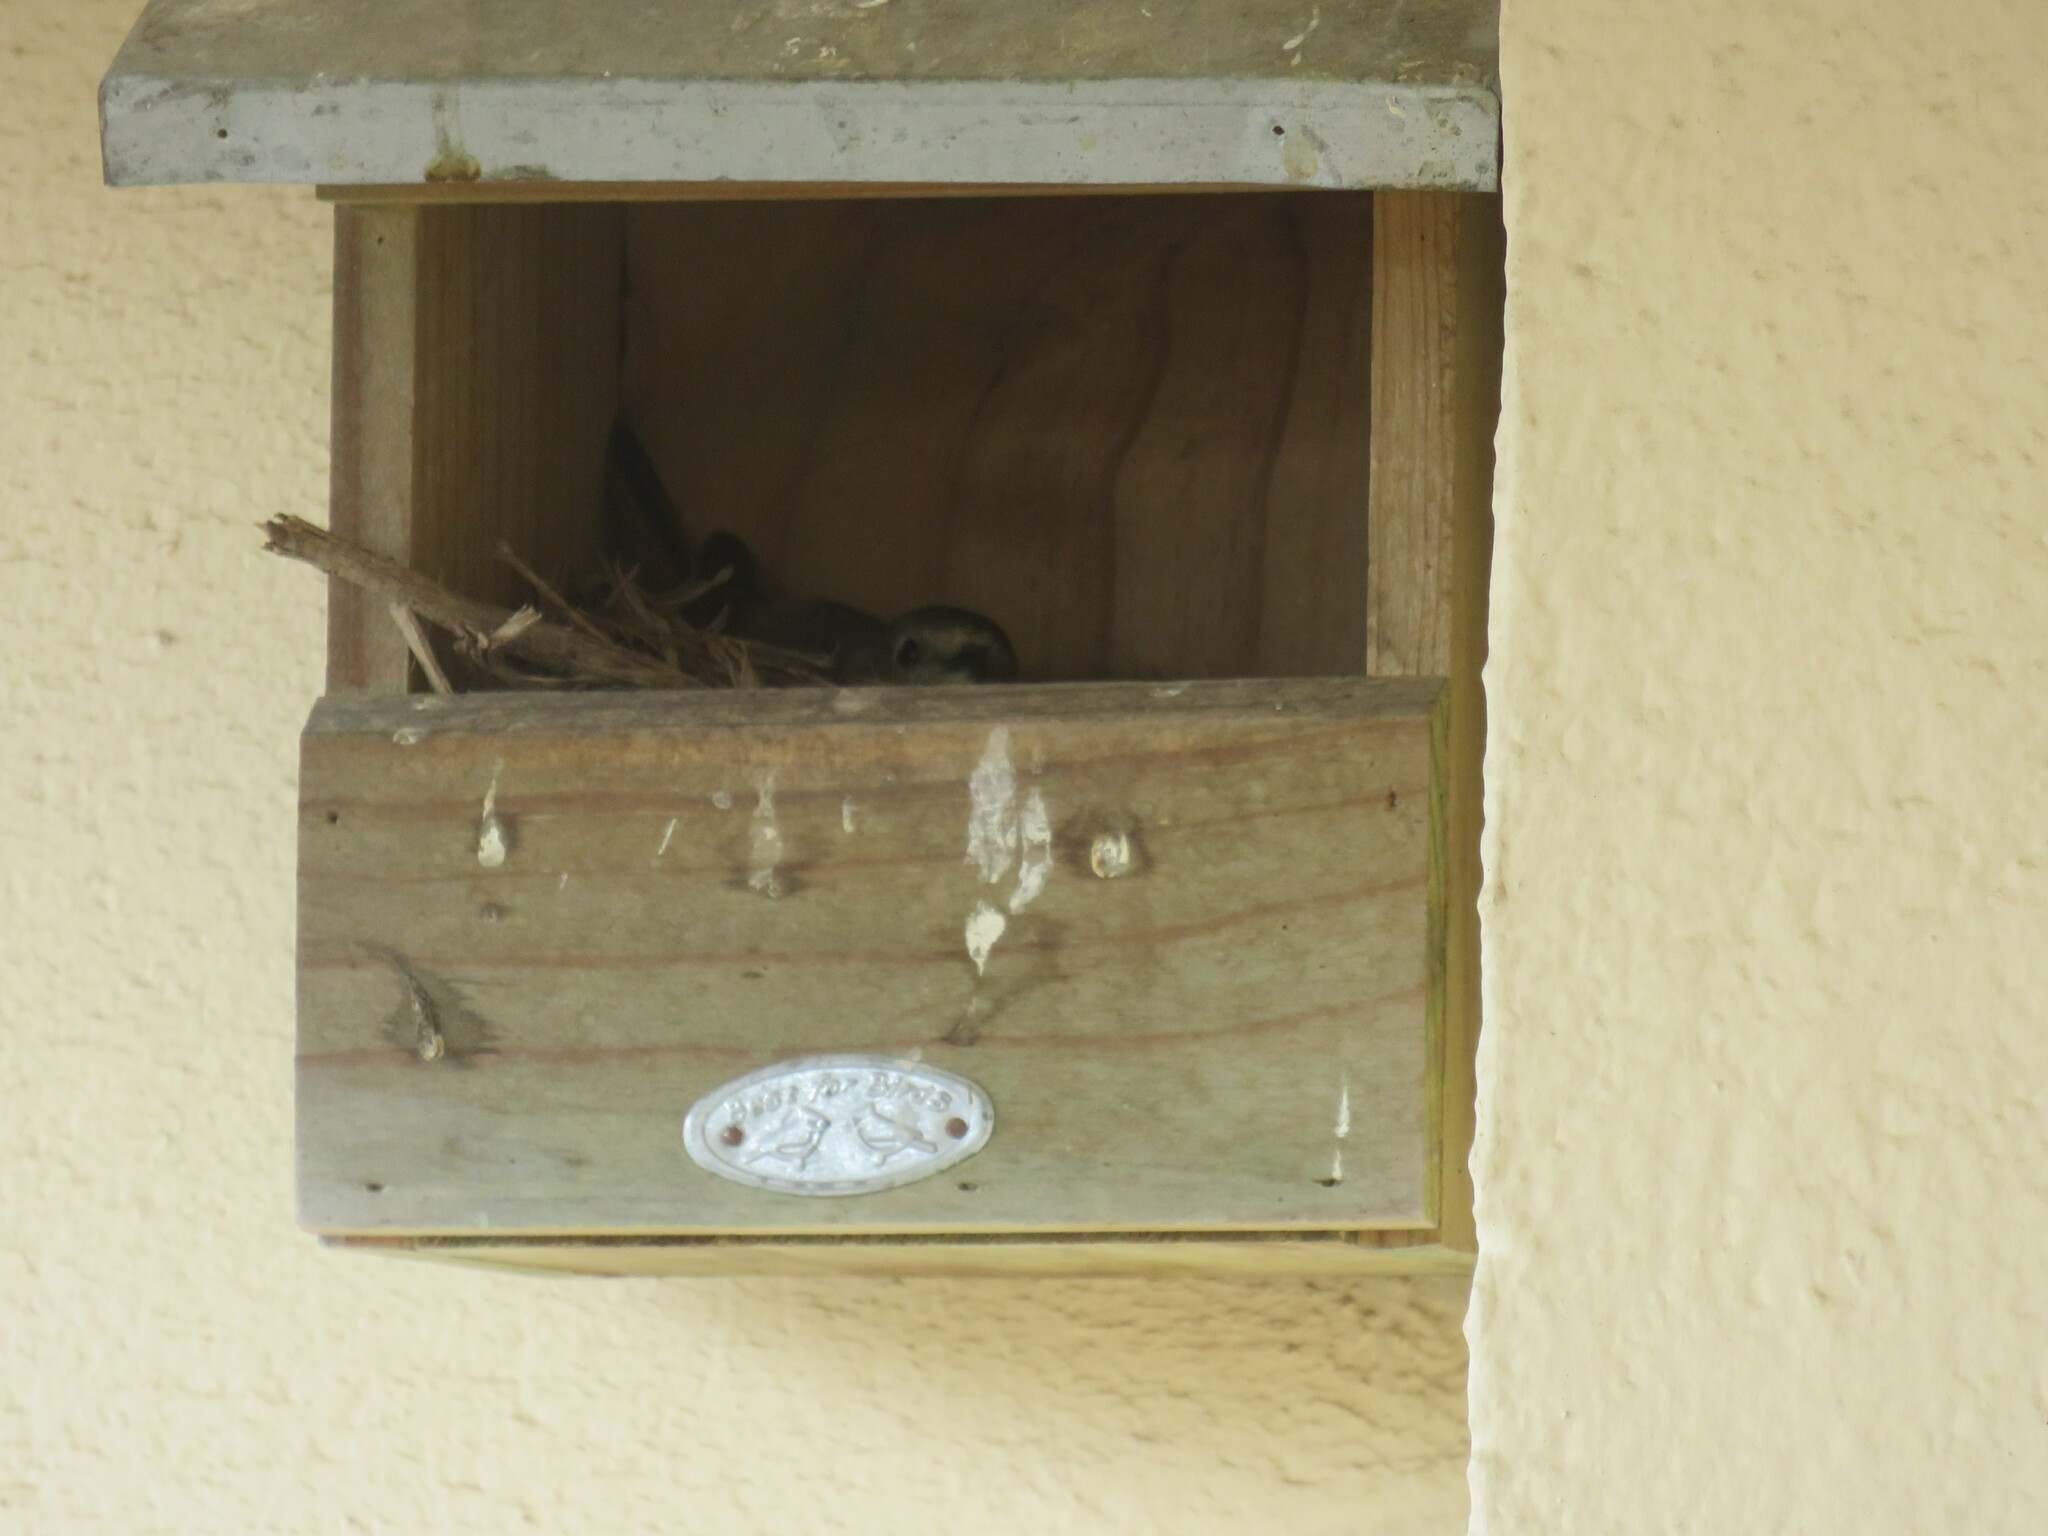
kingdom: Animalia
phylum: Chordata
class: Aves
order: Passeriformes
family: Muscicapidae
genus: Phoenicurus
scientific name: Phoenicurus phoenicurus
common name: Common redstart
